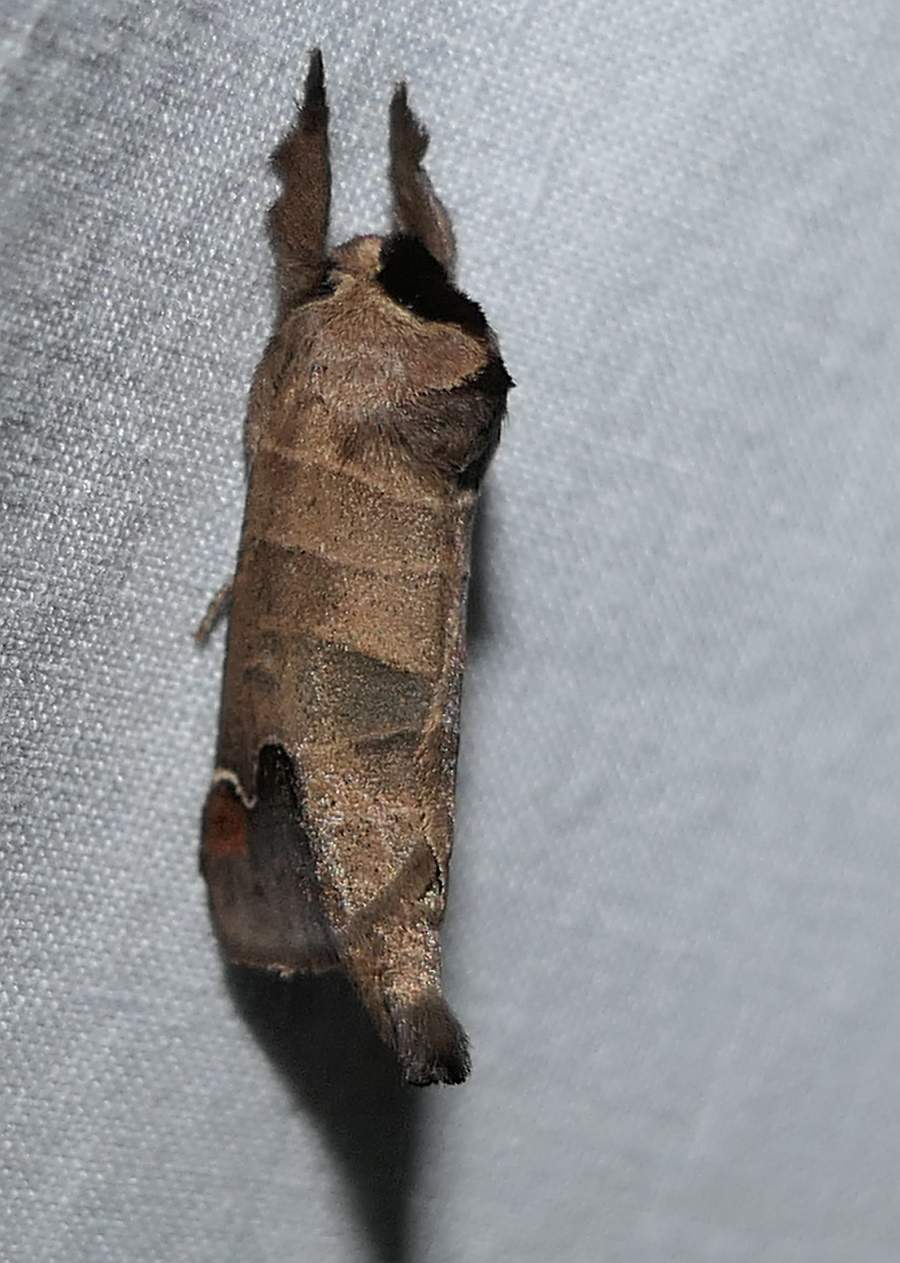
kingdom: Animalia
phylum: Arthropoda
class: Insecta
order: Lepidoptera
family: Notodontidae
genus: Clostera
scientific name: Clostera albosigma
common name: Sigmoid prominent
